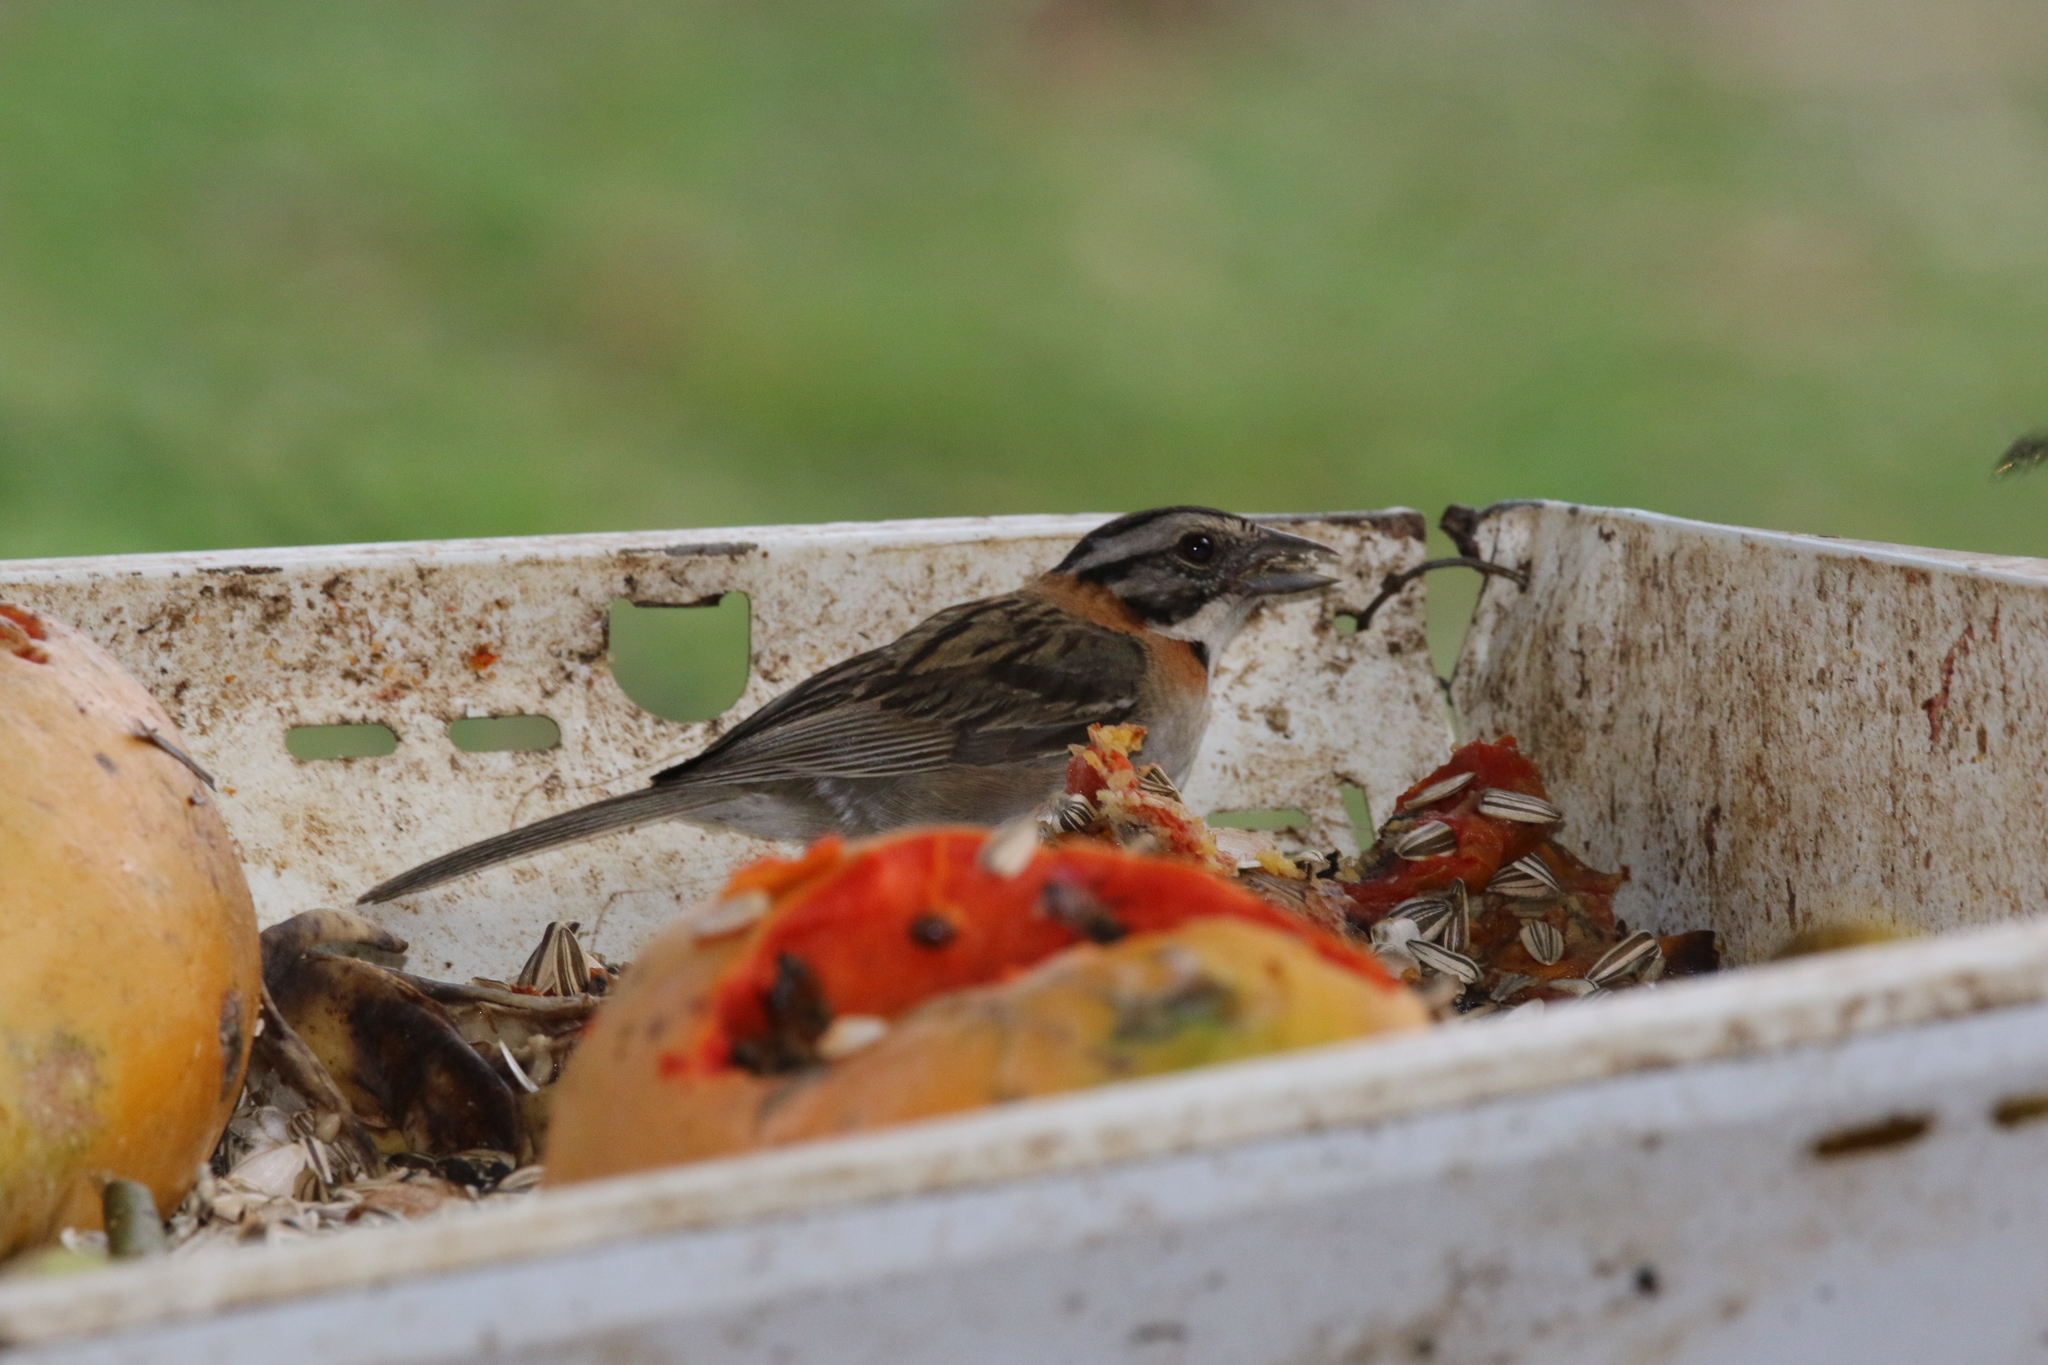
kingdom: Animalia
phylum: Chordata
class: Aves
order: Passeriformes
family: Passerellidae
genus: Zonotrichia
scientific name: Zonotrichia capensis
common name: Rufous-collared sparrow
